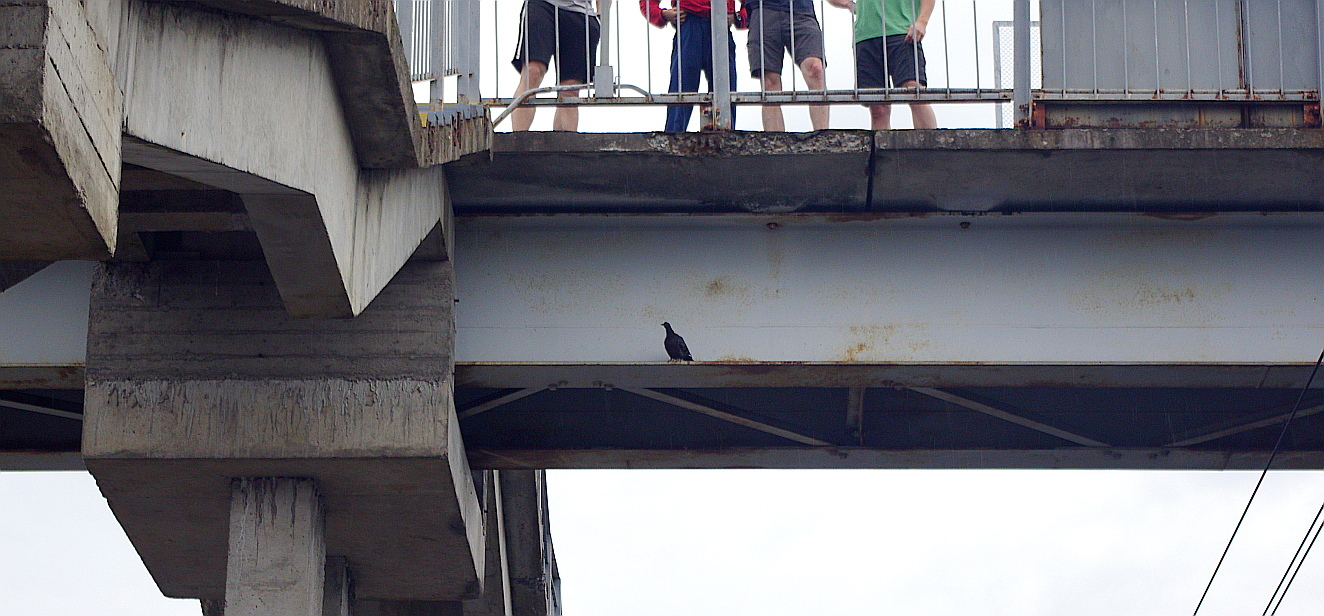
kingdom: Animalia
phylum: Chordata
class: Aves
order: Columbiformes
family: Columbidae
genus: Columba
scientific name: Columba livia
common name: Rock pigeon
